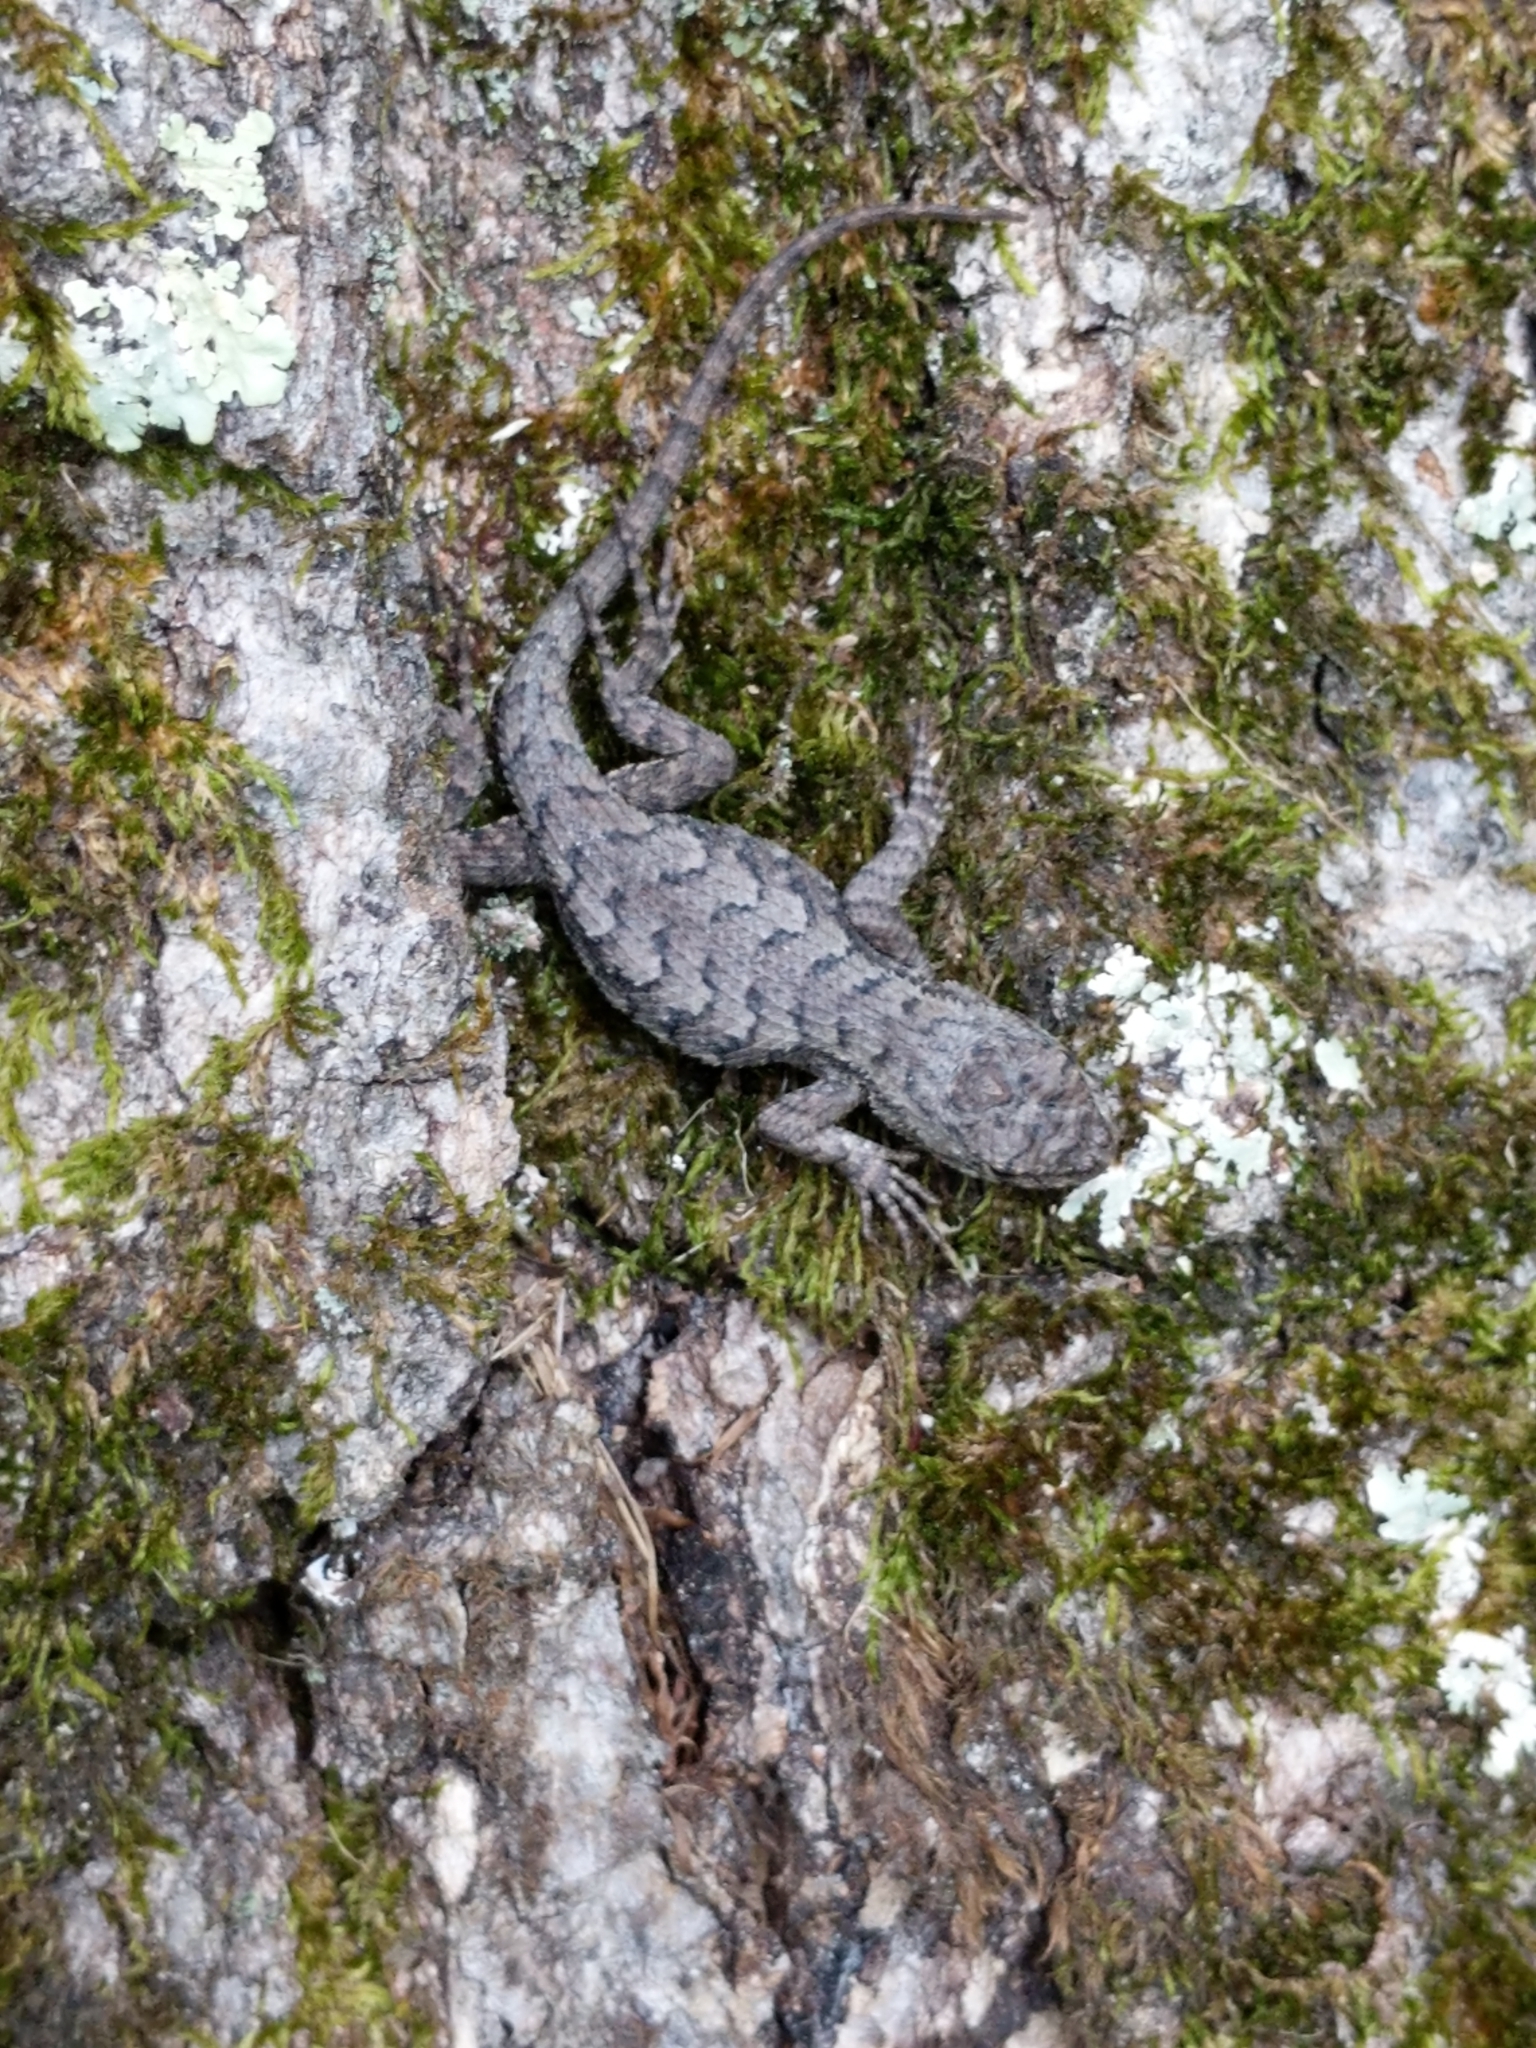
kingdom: Animalia
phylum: Chordata
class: Squamata
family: Phrynosomatidae
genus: Sceloporus
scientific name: Sceloporus undulatus
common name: Eastern fence lizard
